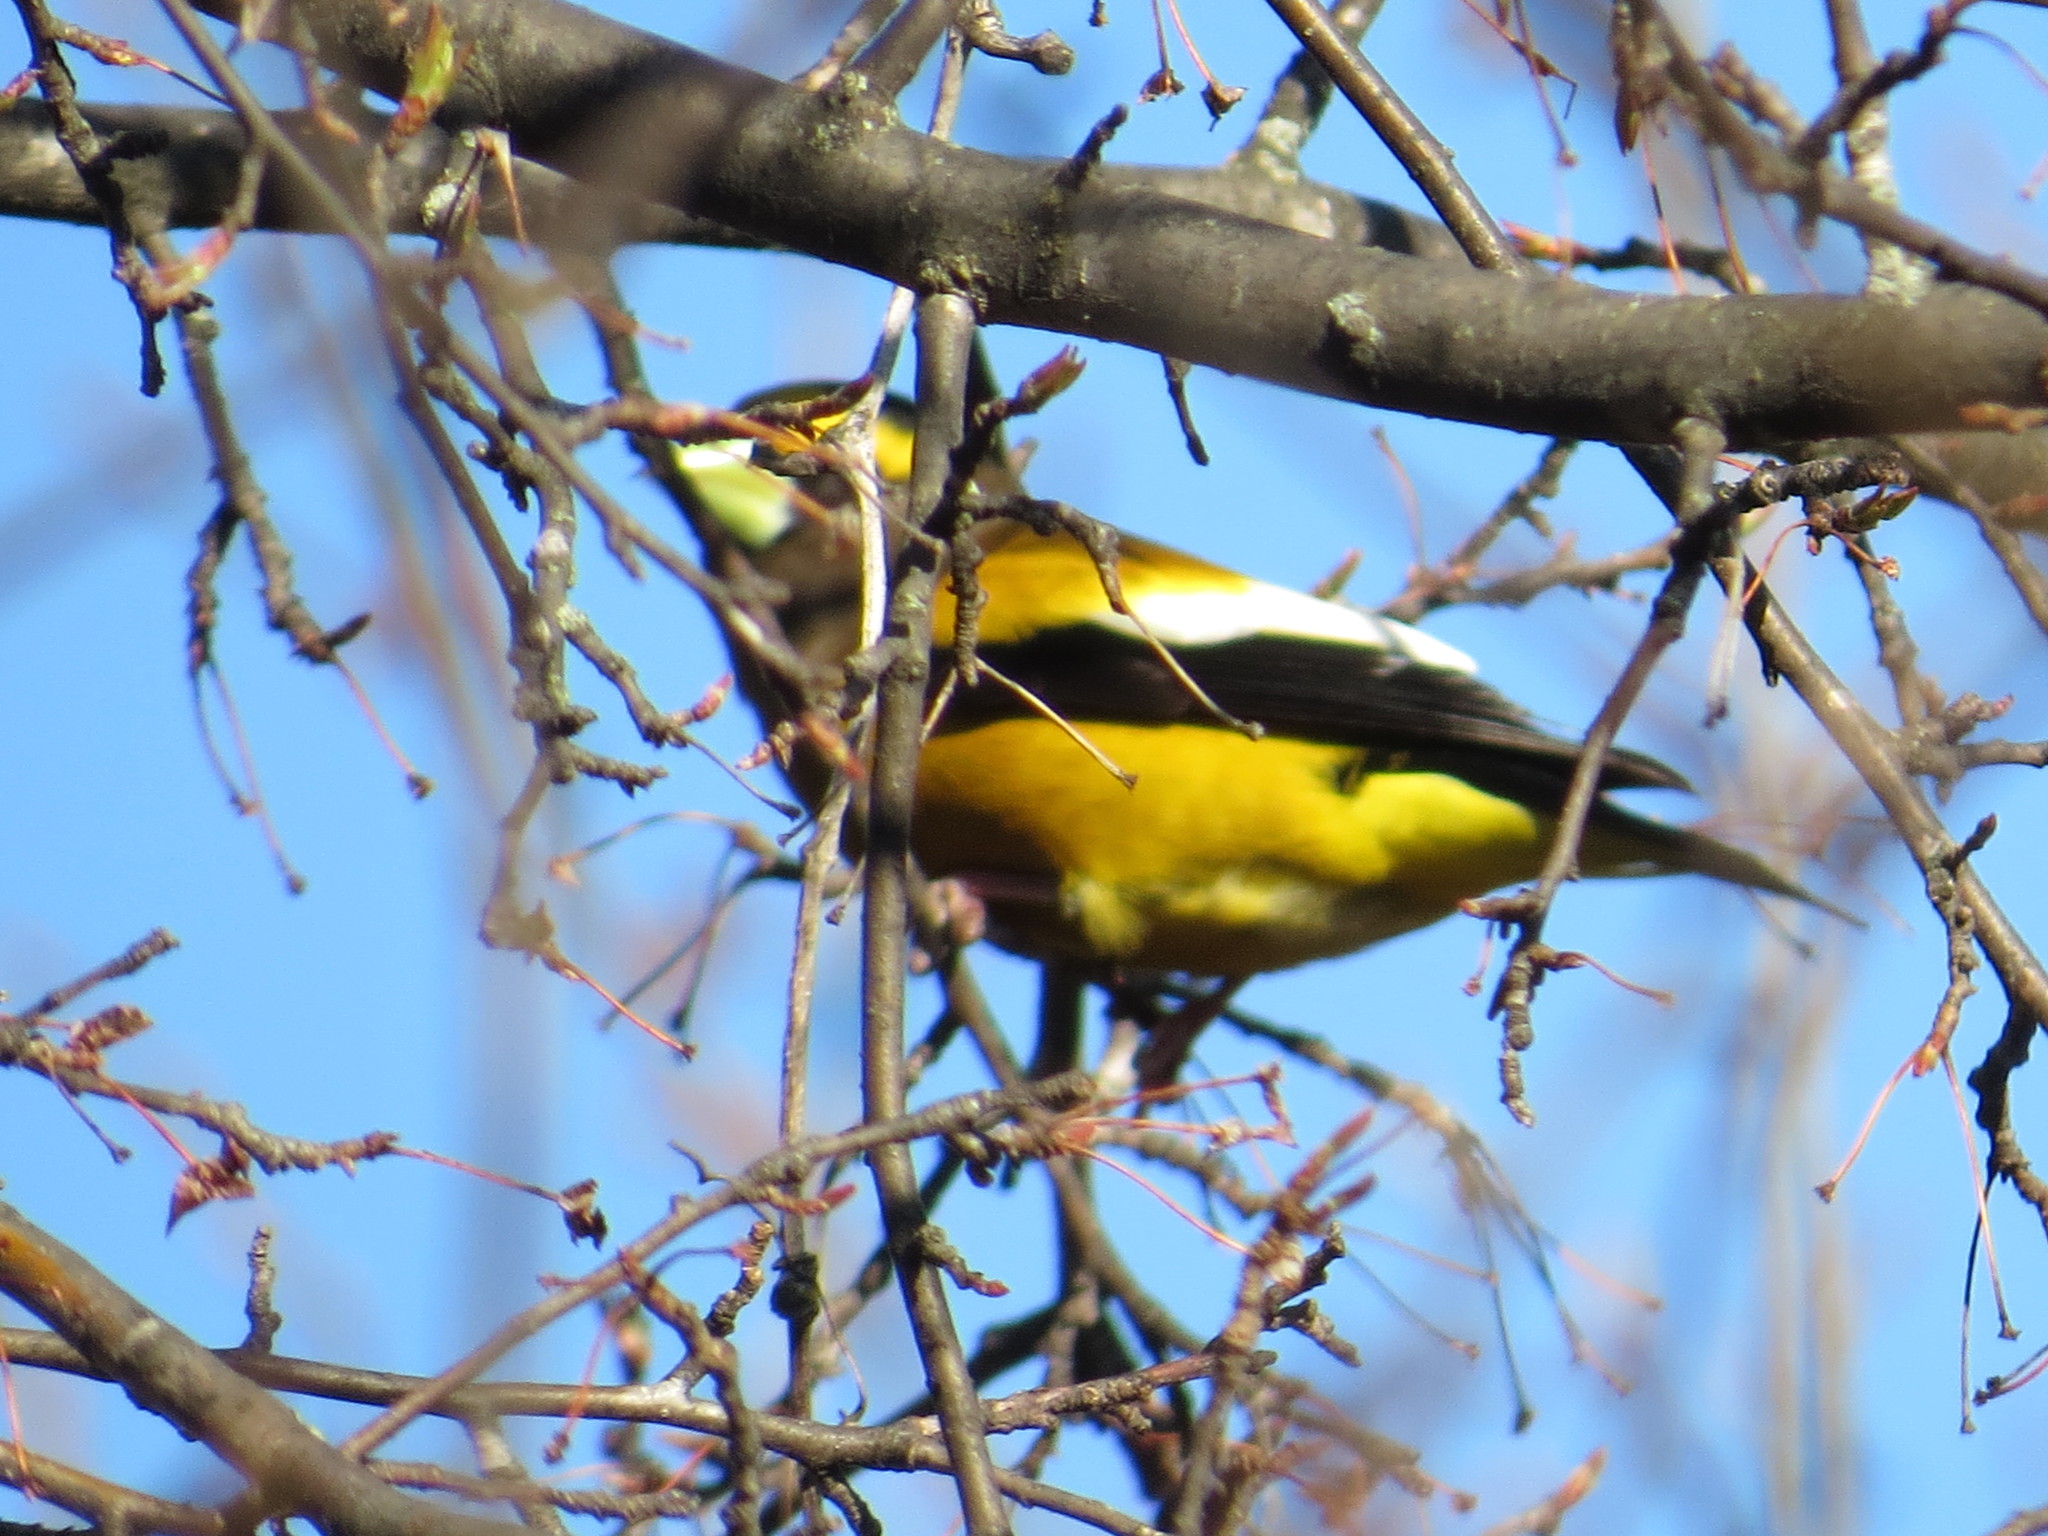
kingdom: Animalia
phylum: Chordata
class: Aves
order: Passeriformes
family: Fringillidae
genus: Hesperiphona
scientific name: Hesperiphona vespertina
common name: Evening grosbeak
